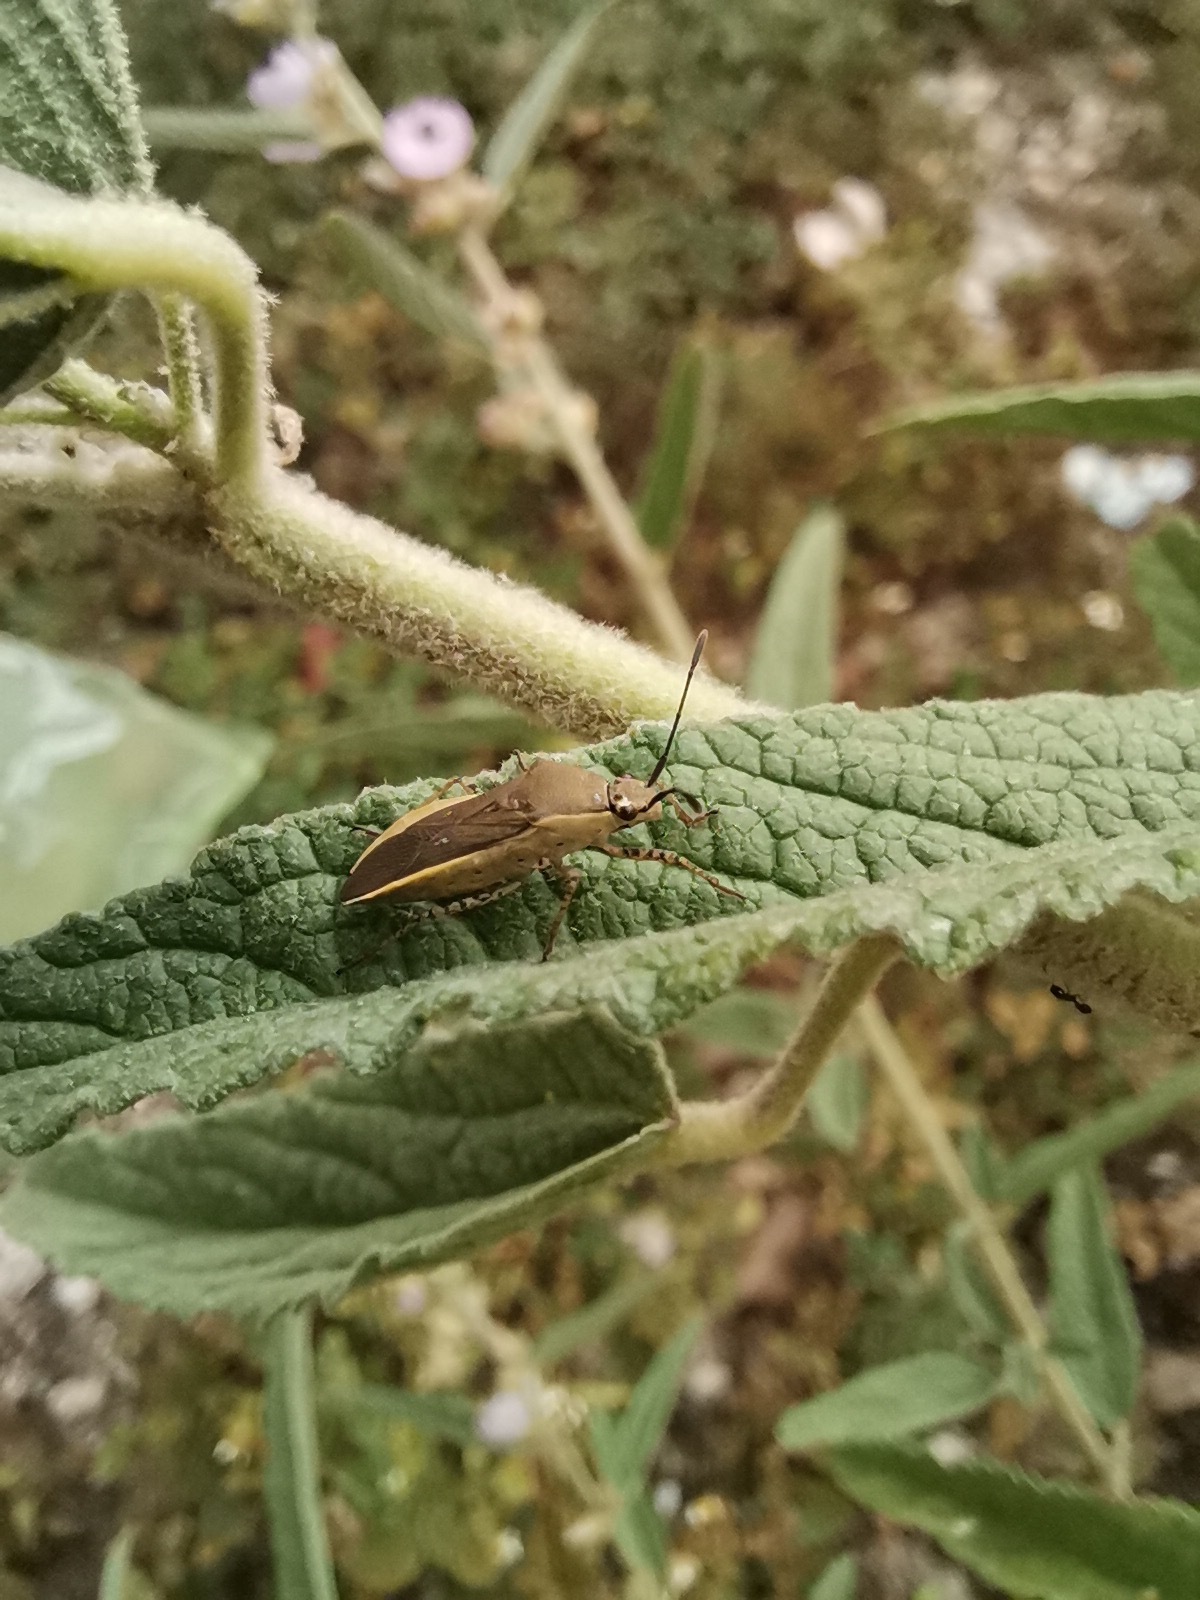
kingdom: Animalia
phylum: Arthropoda
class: Insecta
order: Hemiptera
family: Coreidae
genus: Catorhintha
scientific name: Catorhintha selector
